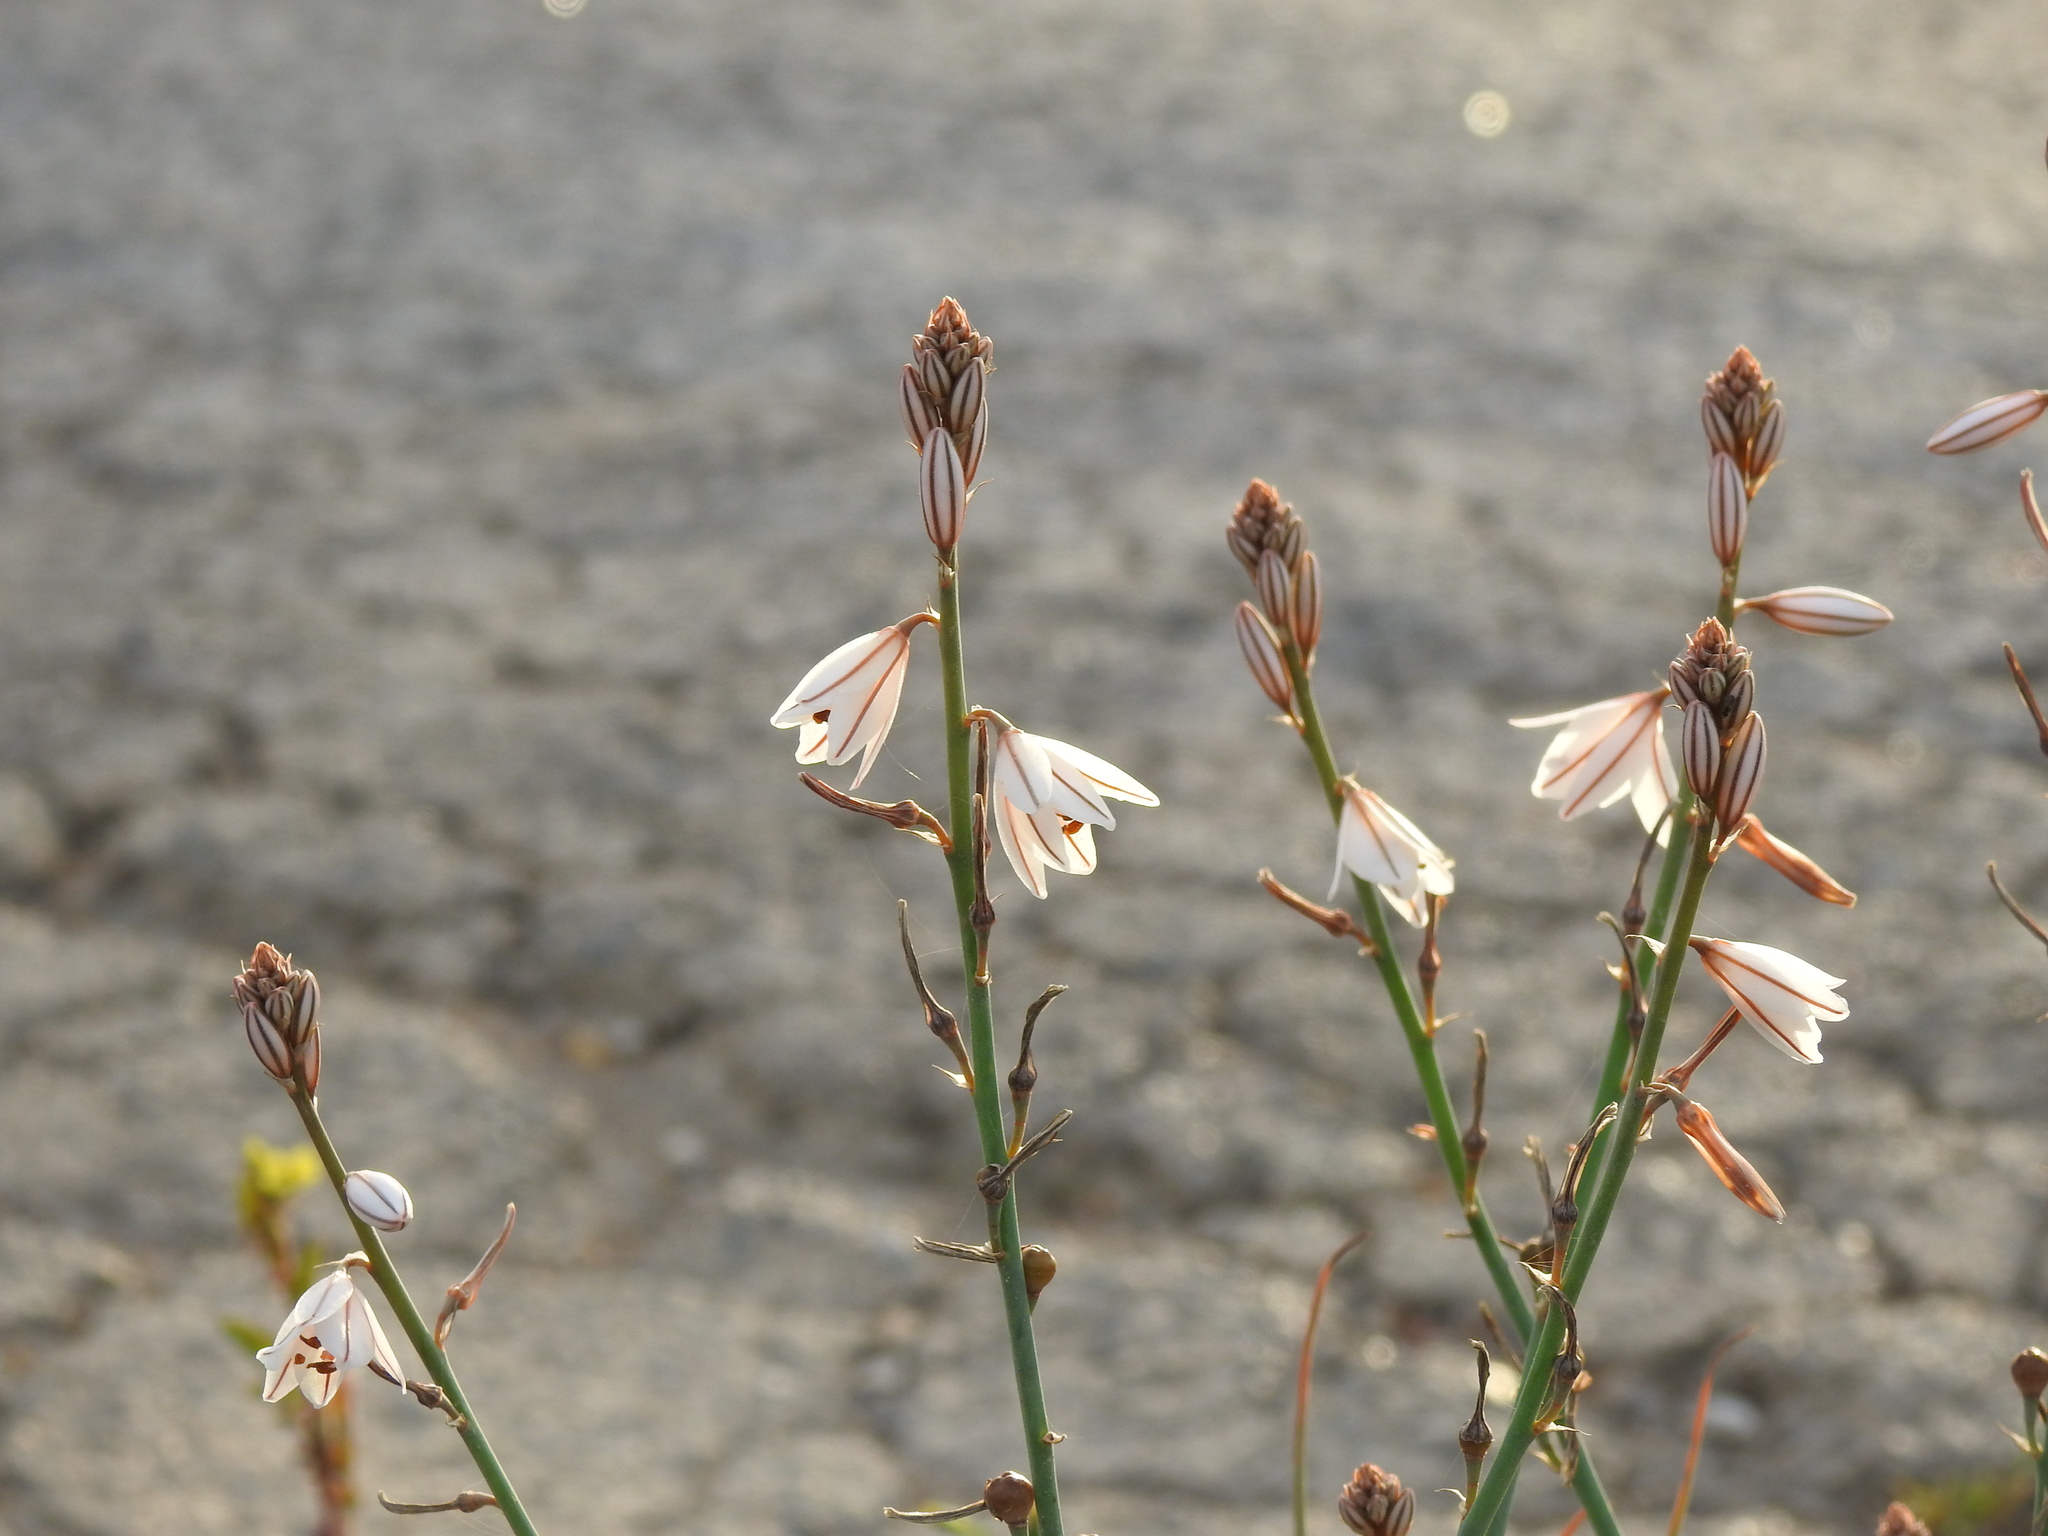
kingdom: Plantae
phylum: Tracheophyta
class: Liliopsida
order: Asparagales
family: Asphodelaceae
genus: Asphodelus
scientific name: Asphodelus fistulosus
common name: Onionweed
